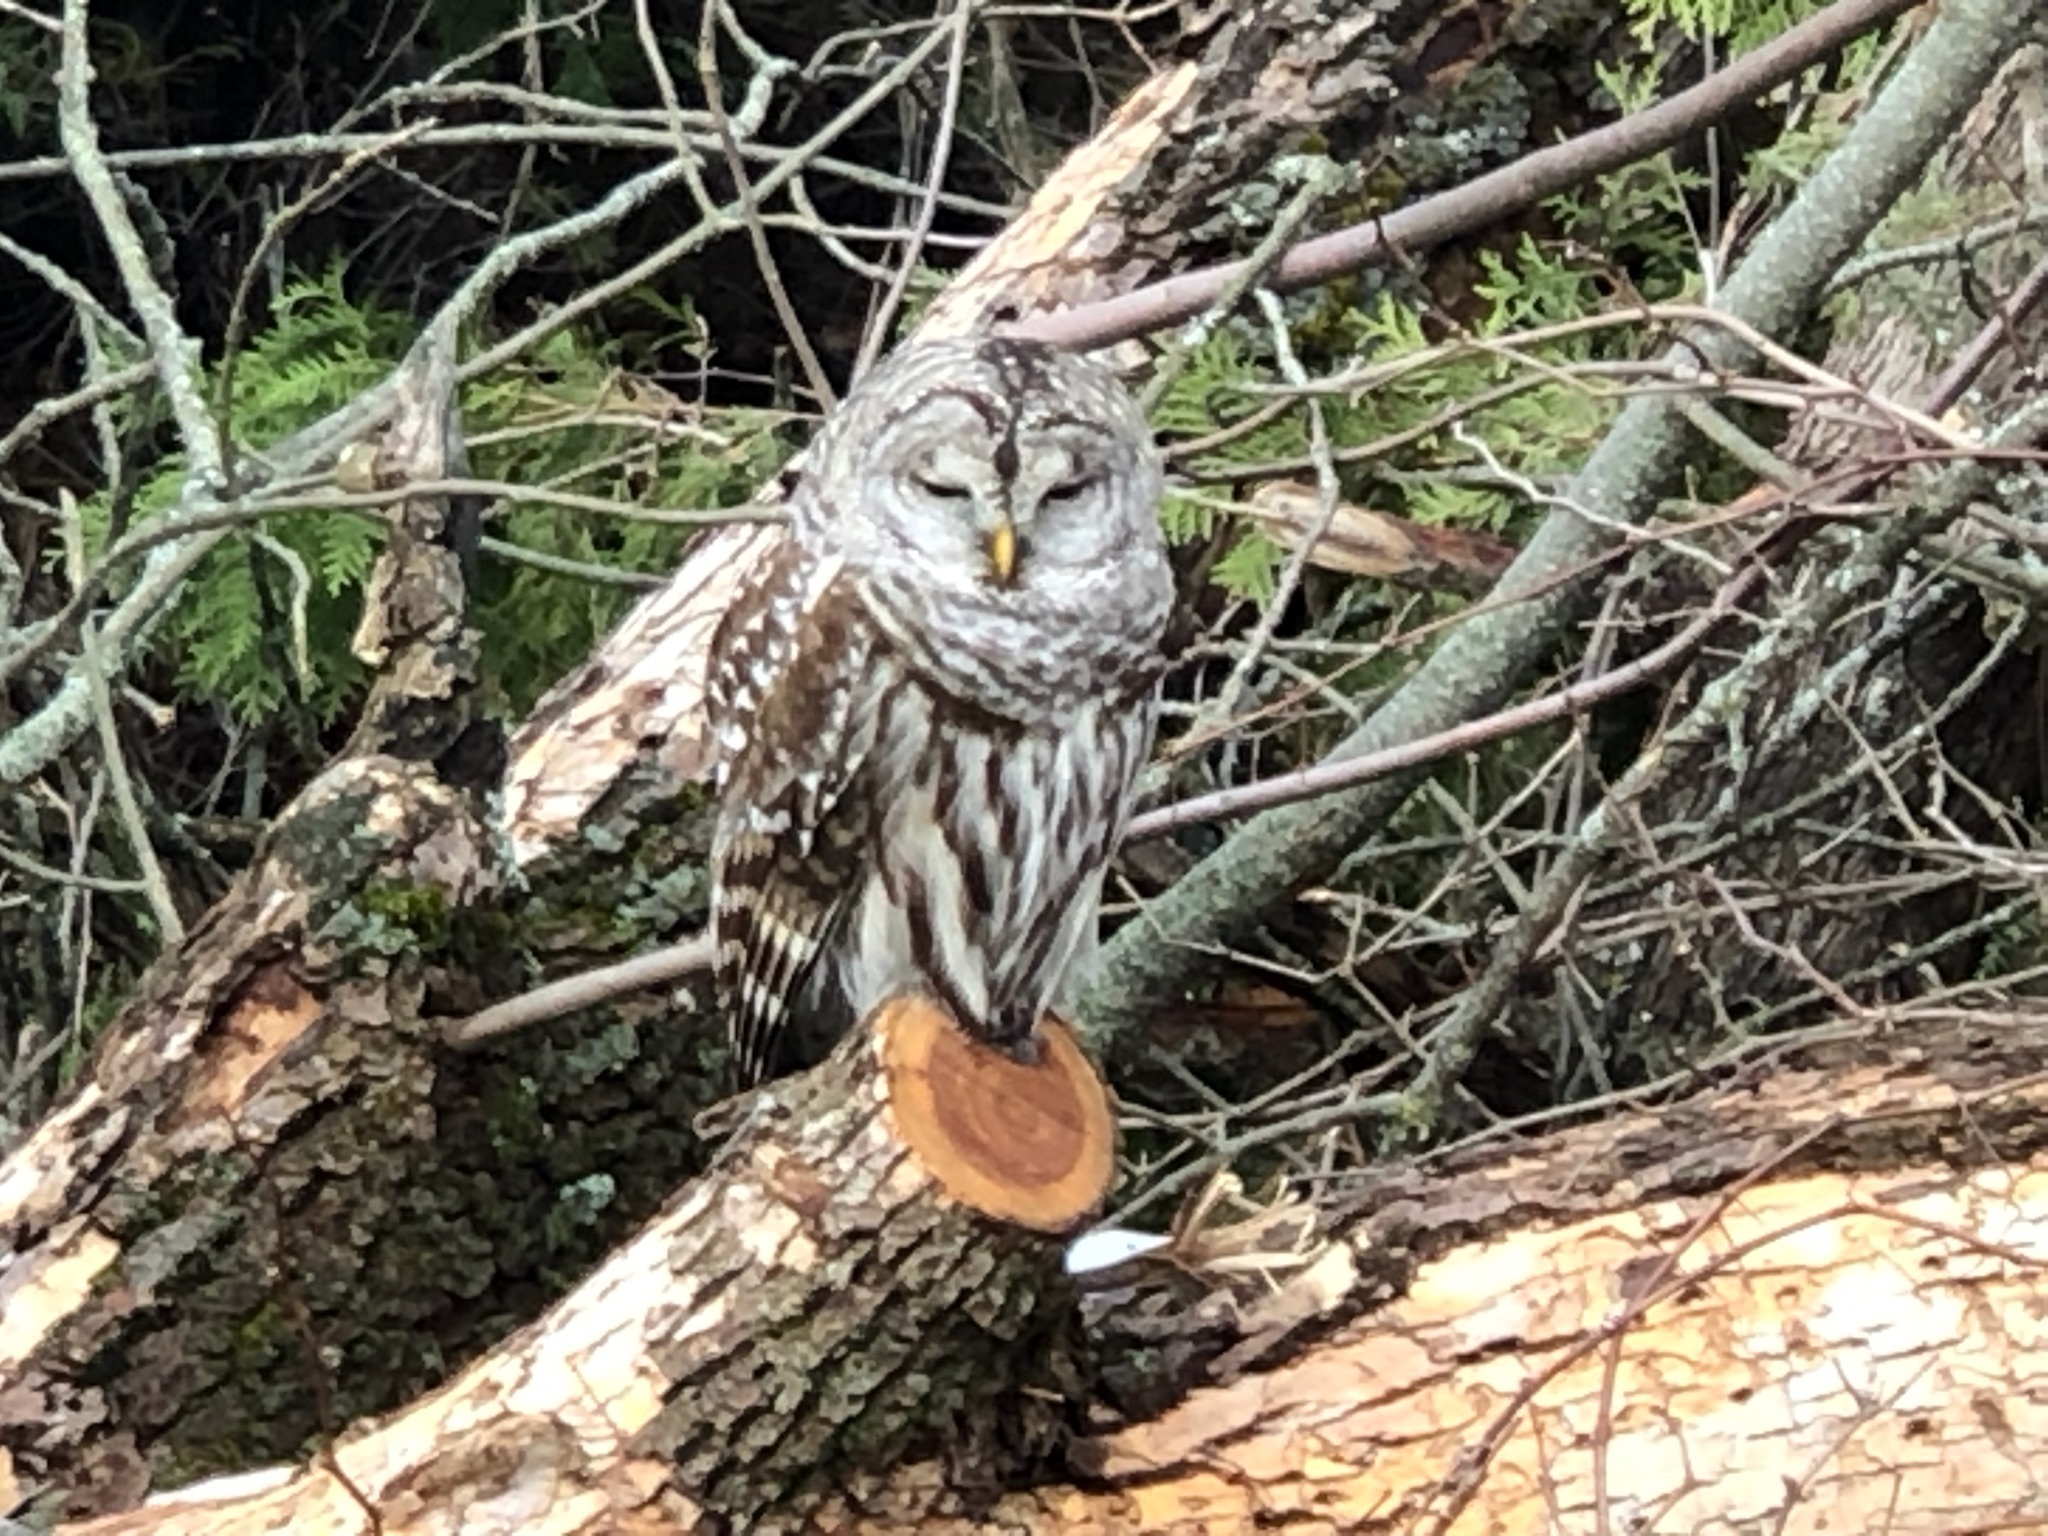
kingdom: Animalia
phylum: Chordata
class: Aves
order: Strigiformes
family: Strigidae
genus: Strix
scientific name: Strix varia
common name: Barred owl
